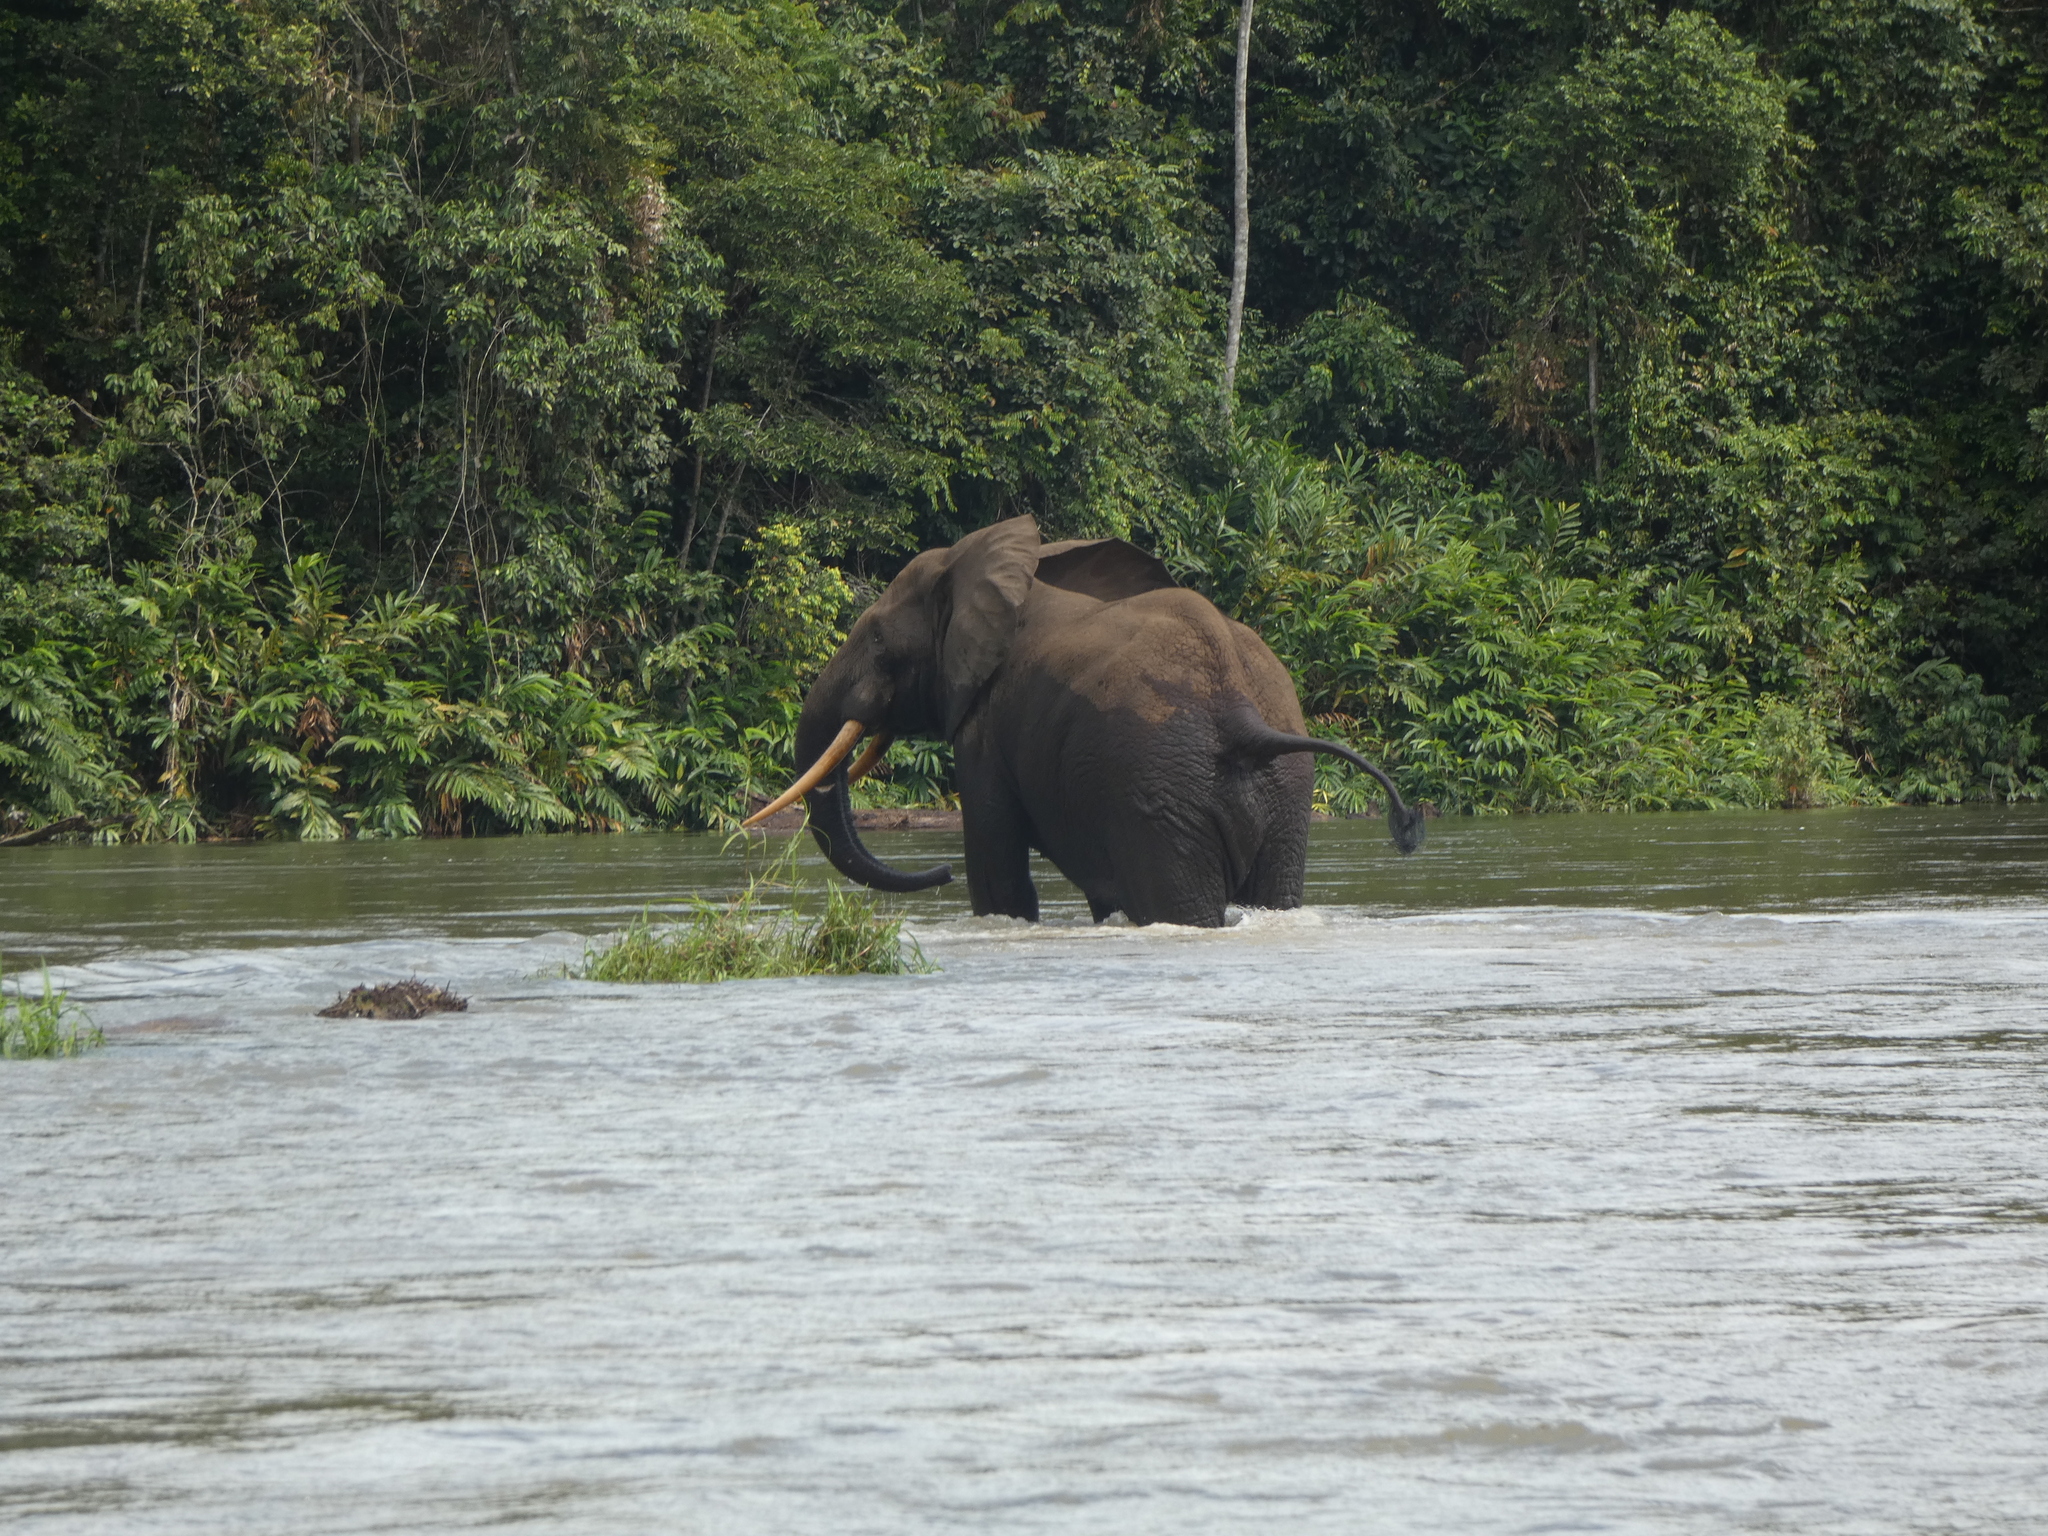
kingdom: Animalia
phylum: Chordata
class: Mammalia
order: Proboscidea
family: Elephantidae
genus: Loxodonta
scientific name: Loxodonta cyclotis
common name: African forest elephant
